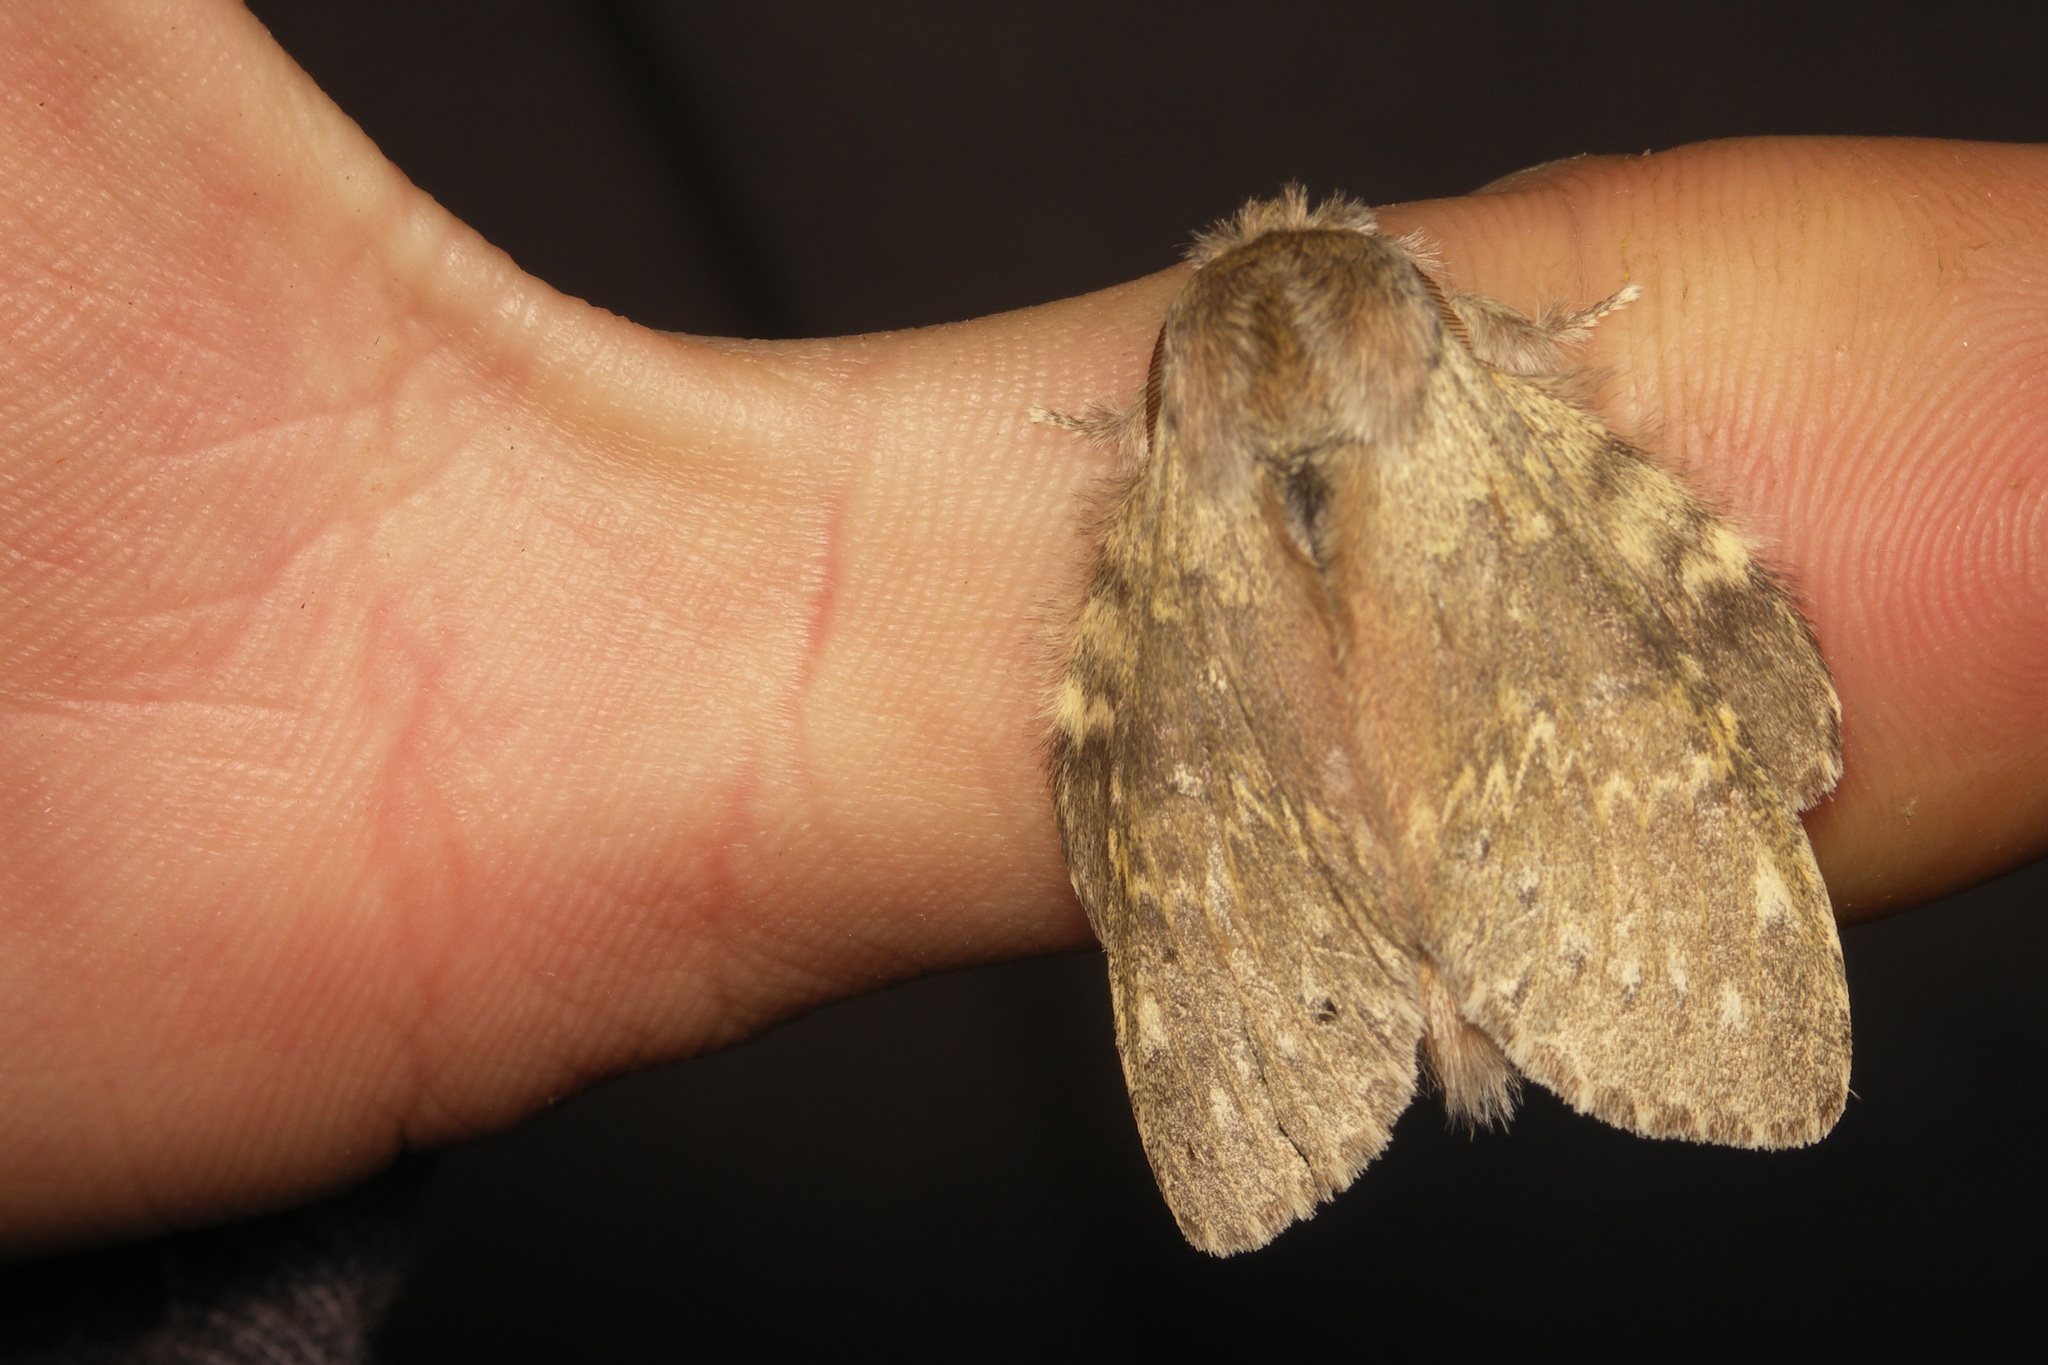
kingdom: Animalia
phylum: Arthropoda
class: Insecta
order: Lepidoptera
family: Notodontidae
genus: Stauropus
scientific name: Stauropus fagi
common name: Lobster moth
